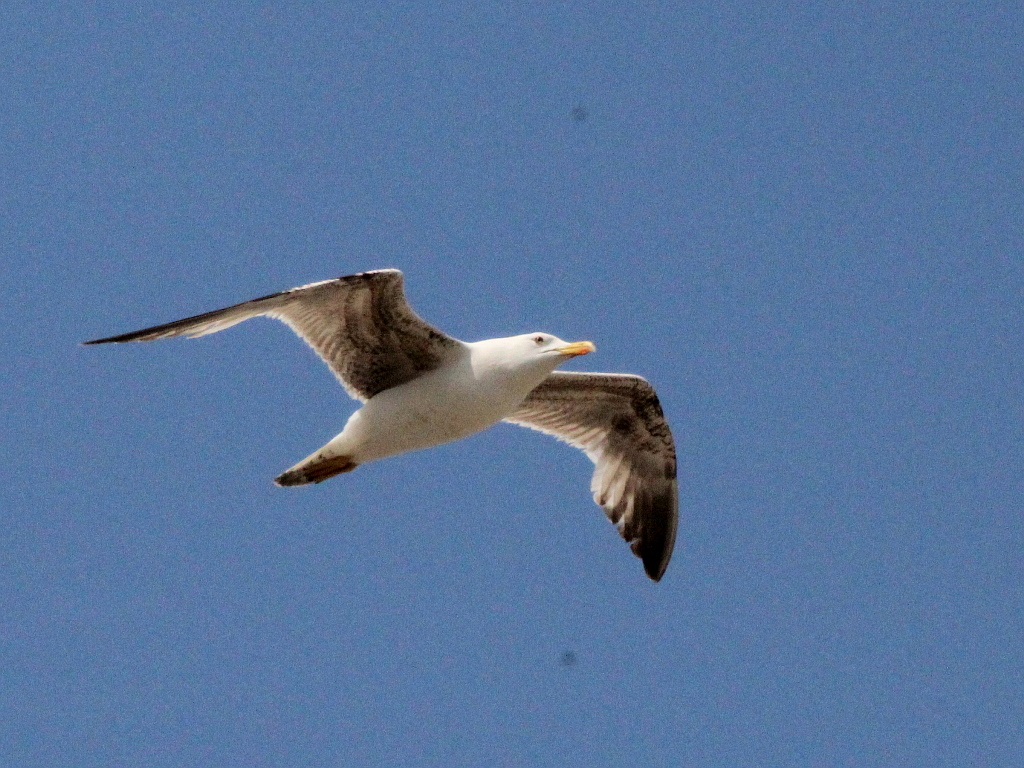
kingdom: Animalia
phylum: Chordata
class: Aves
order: Charadriiformes
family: Laridae
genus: Larus
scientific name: Larus michahellis
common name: Yellow-legged gull
